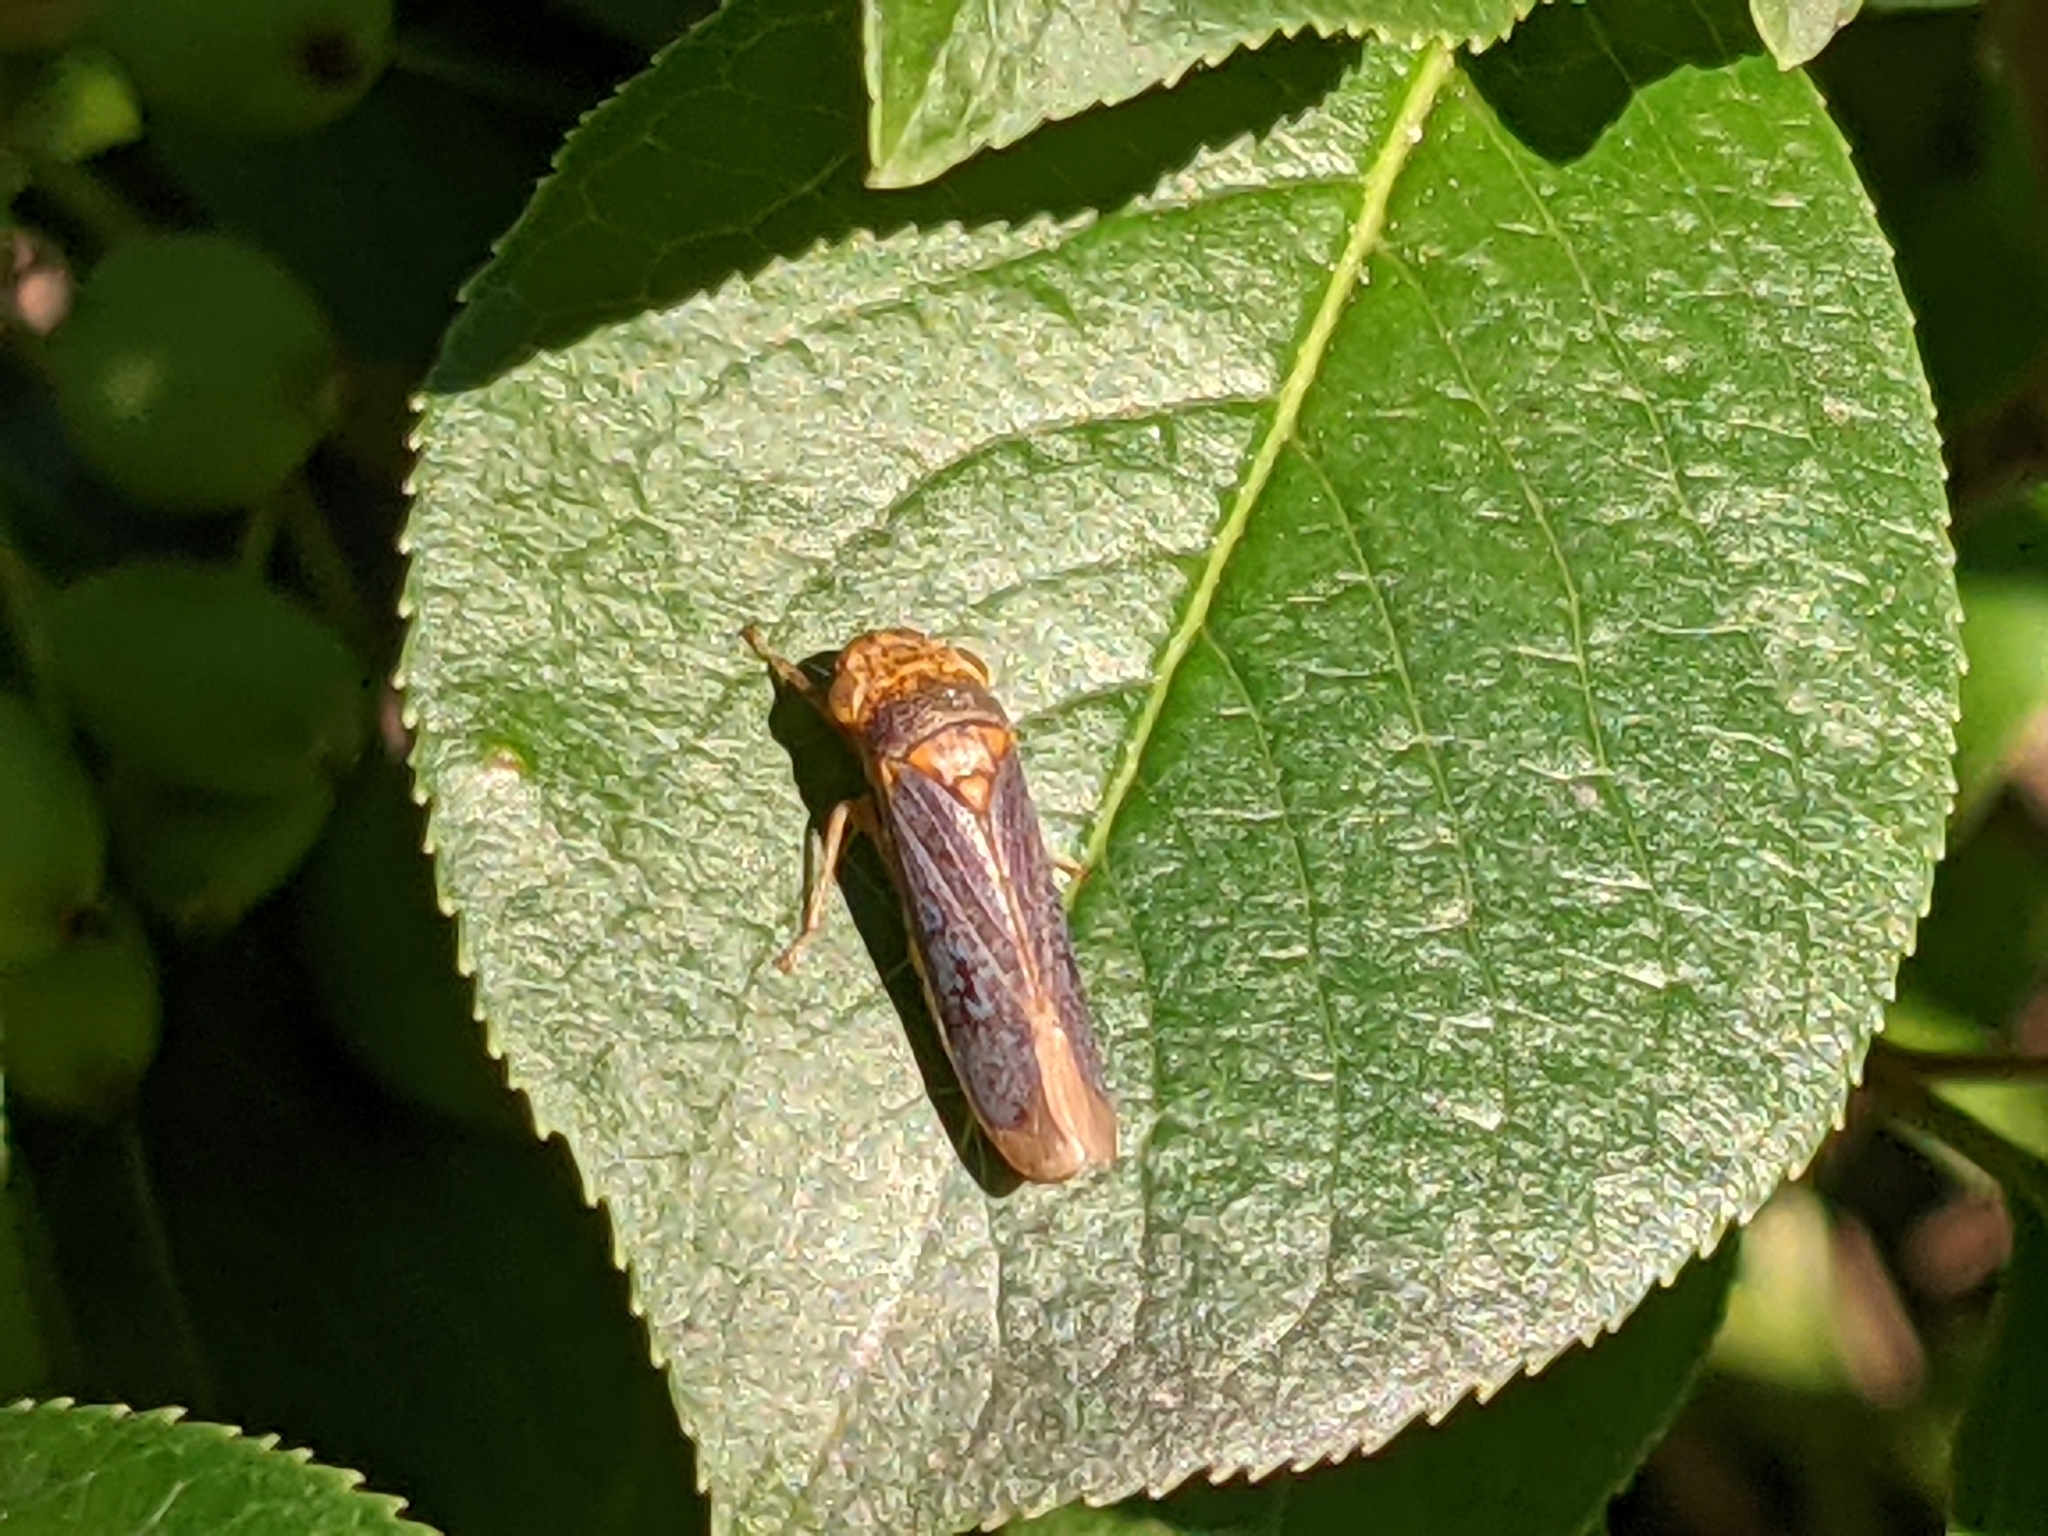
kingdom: Animalia
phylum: Arthropoda
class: Insecta
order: Hemiptera
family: Cicadellidae
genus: Oncometopia
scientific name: Oncometopia orbona
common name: Broad-headed sharpshooter
